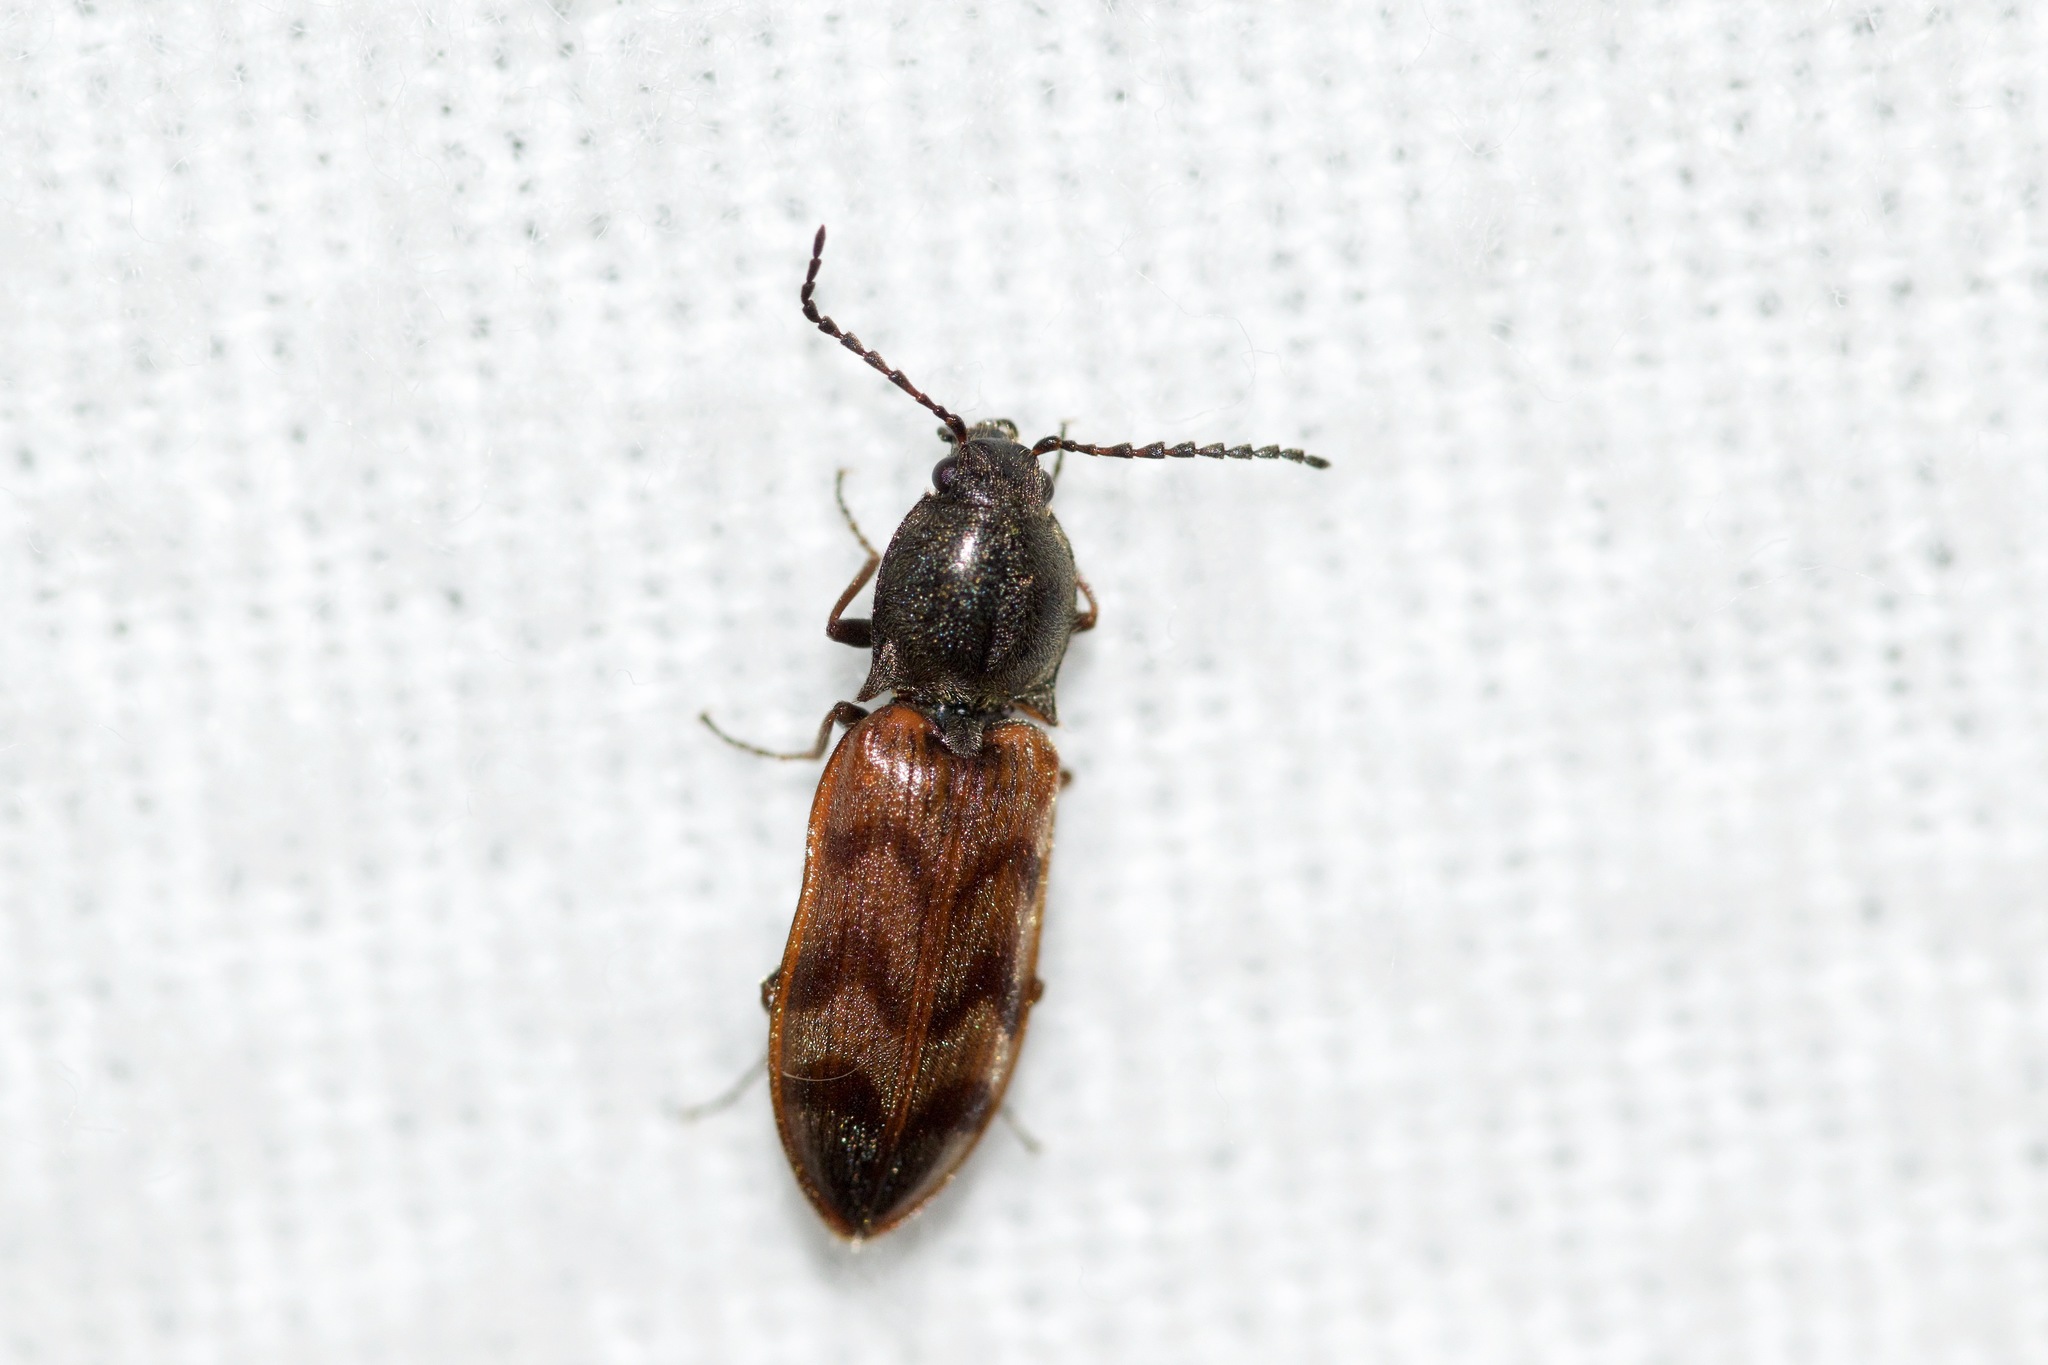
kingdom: Animalia
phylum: Arthropoda
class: Insecta
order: Coleoptera
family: Elateridae
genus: Pseudanostirus
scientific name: Pseudanostirus triundulatus
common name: Three-spotted click beetle
